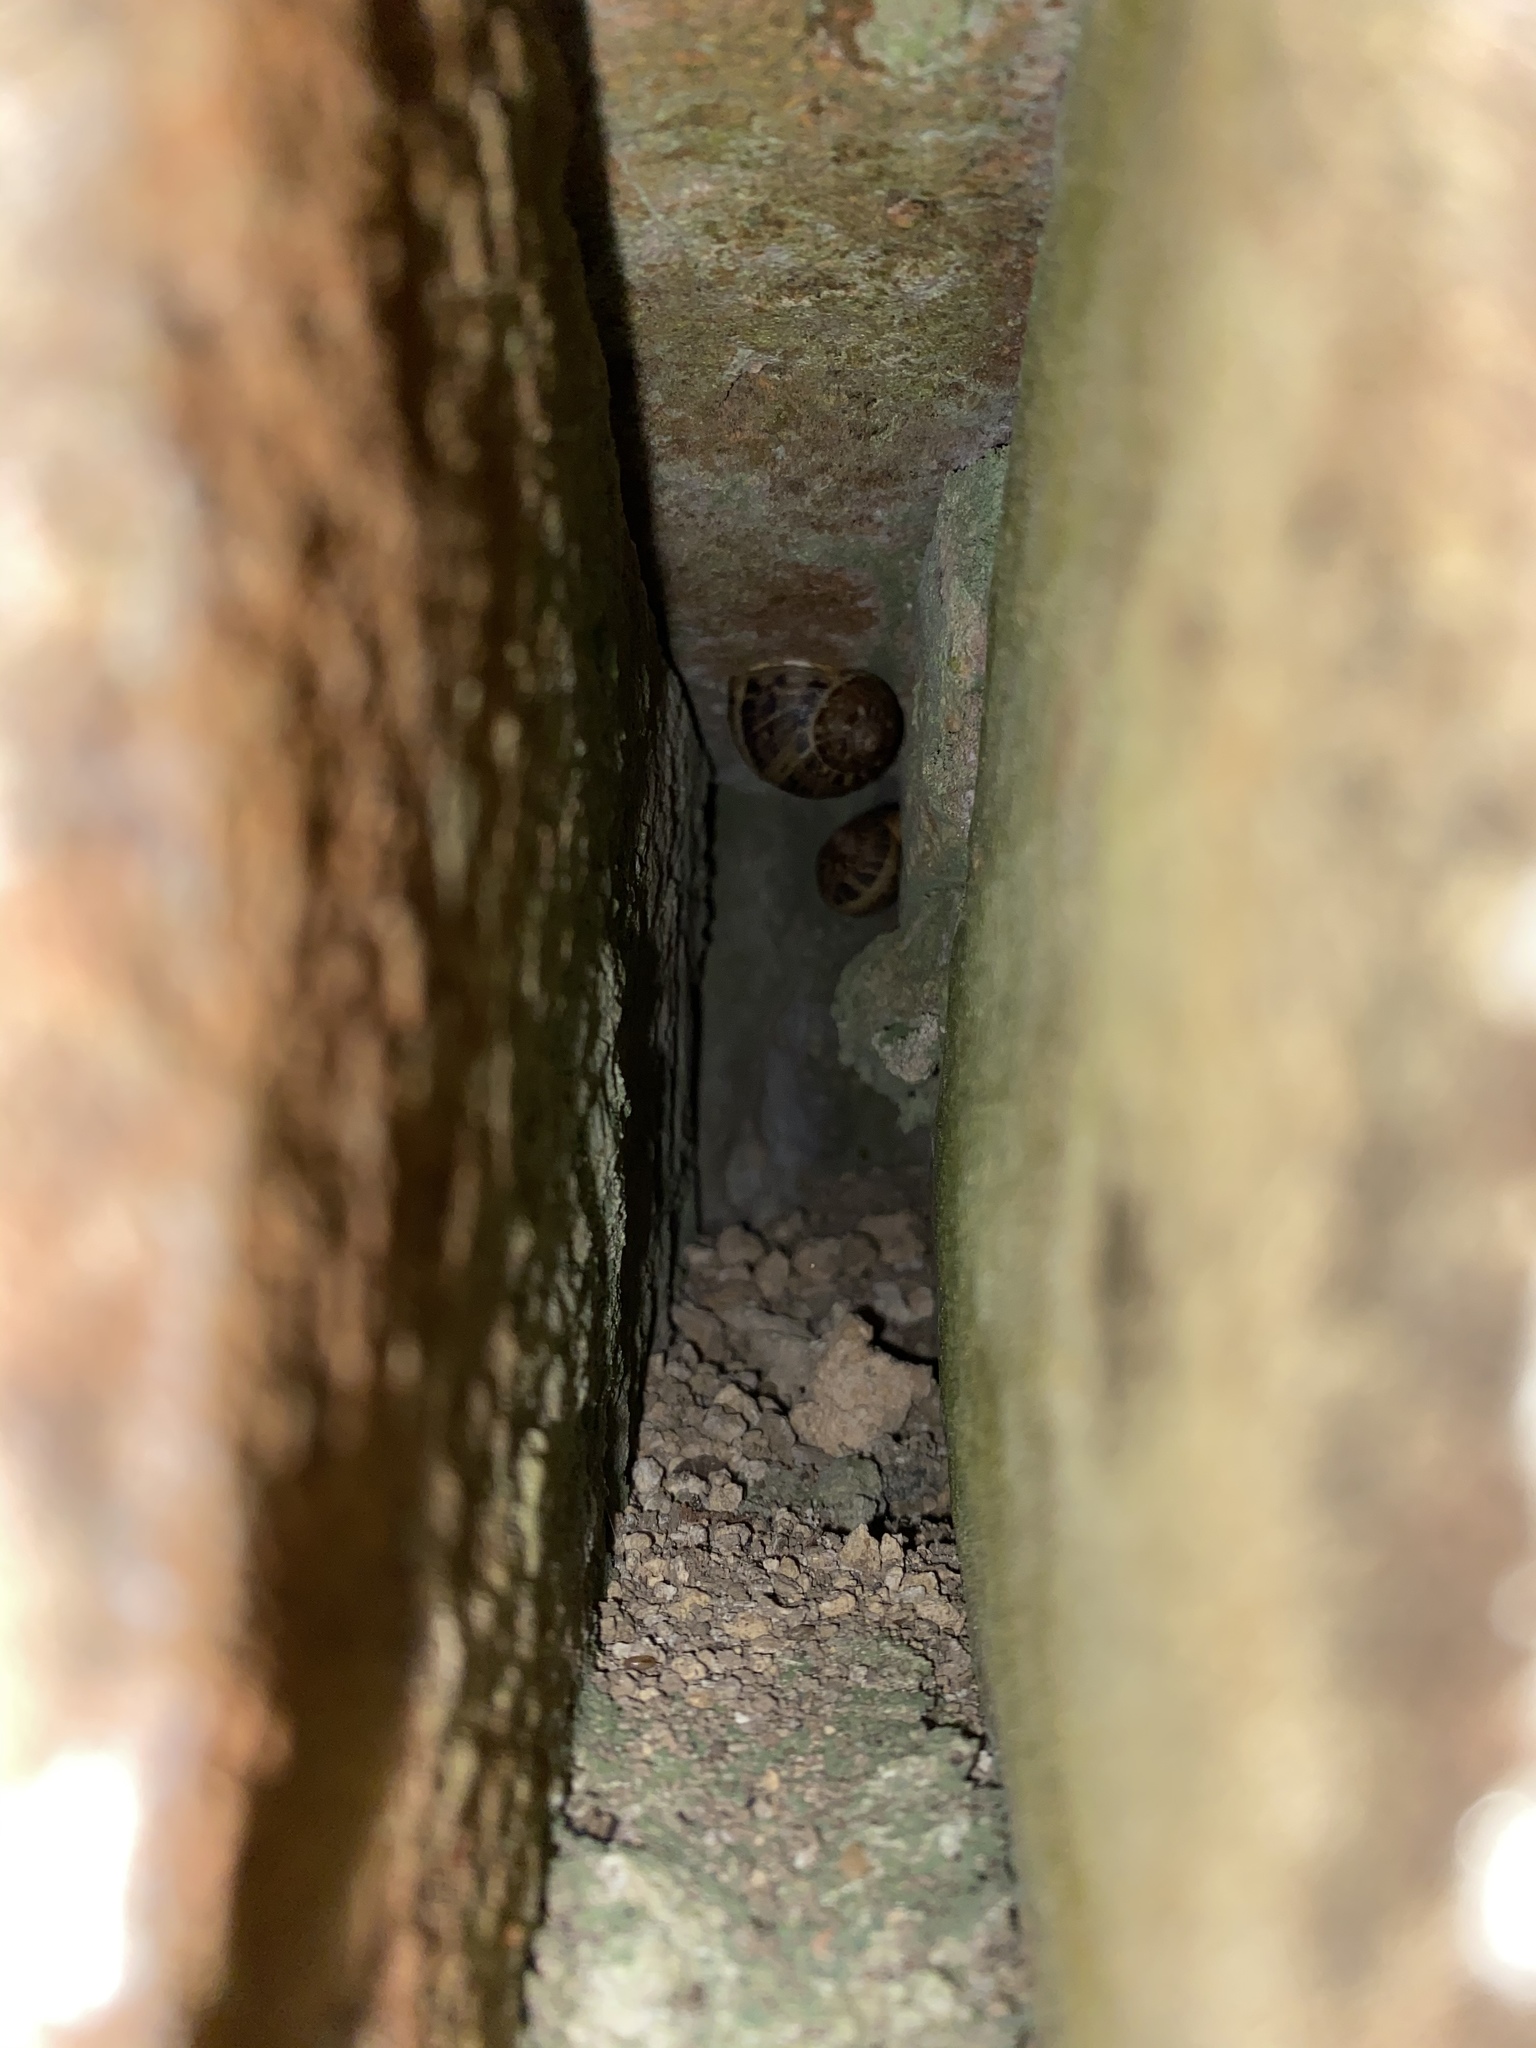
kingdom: Animalia
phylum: Mollusca
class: Gastropoda
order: Stylommatophora
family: Helicidae
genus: Cornu
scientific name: Cornu aspersum
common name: Brown garden snail
